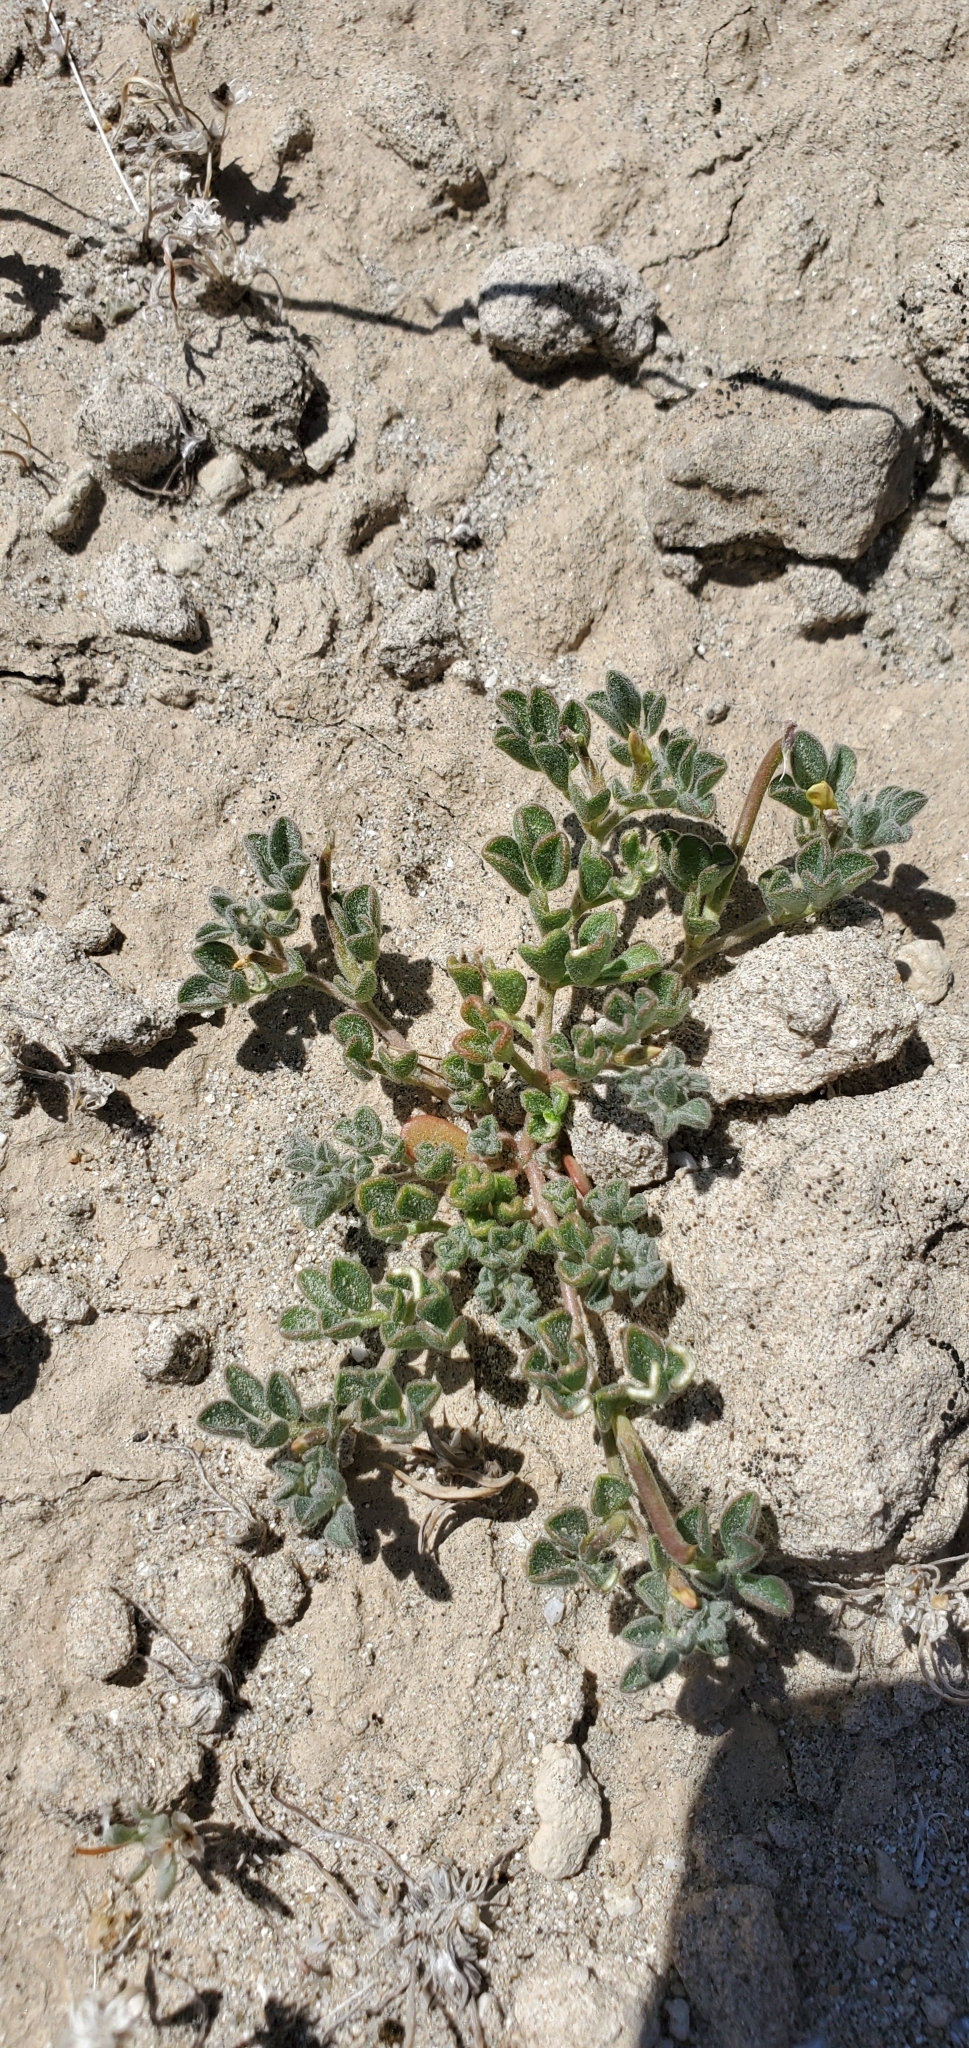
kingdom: Plantae
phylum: Tracheophyta
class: Magnoliopsida
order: Fabales
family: Fabaceae
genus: Acmispon
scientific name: Acmispon strigosus
